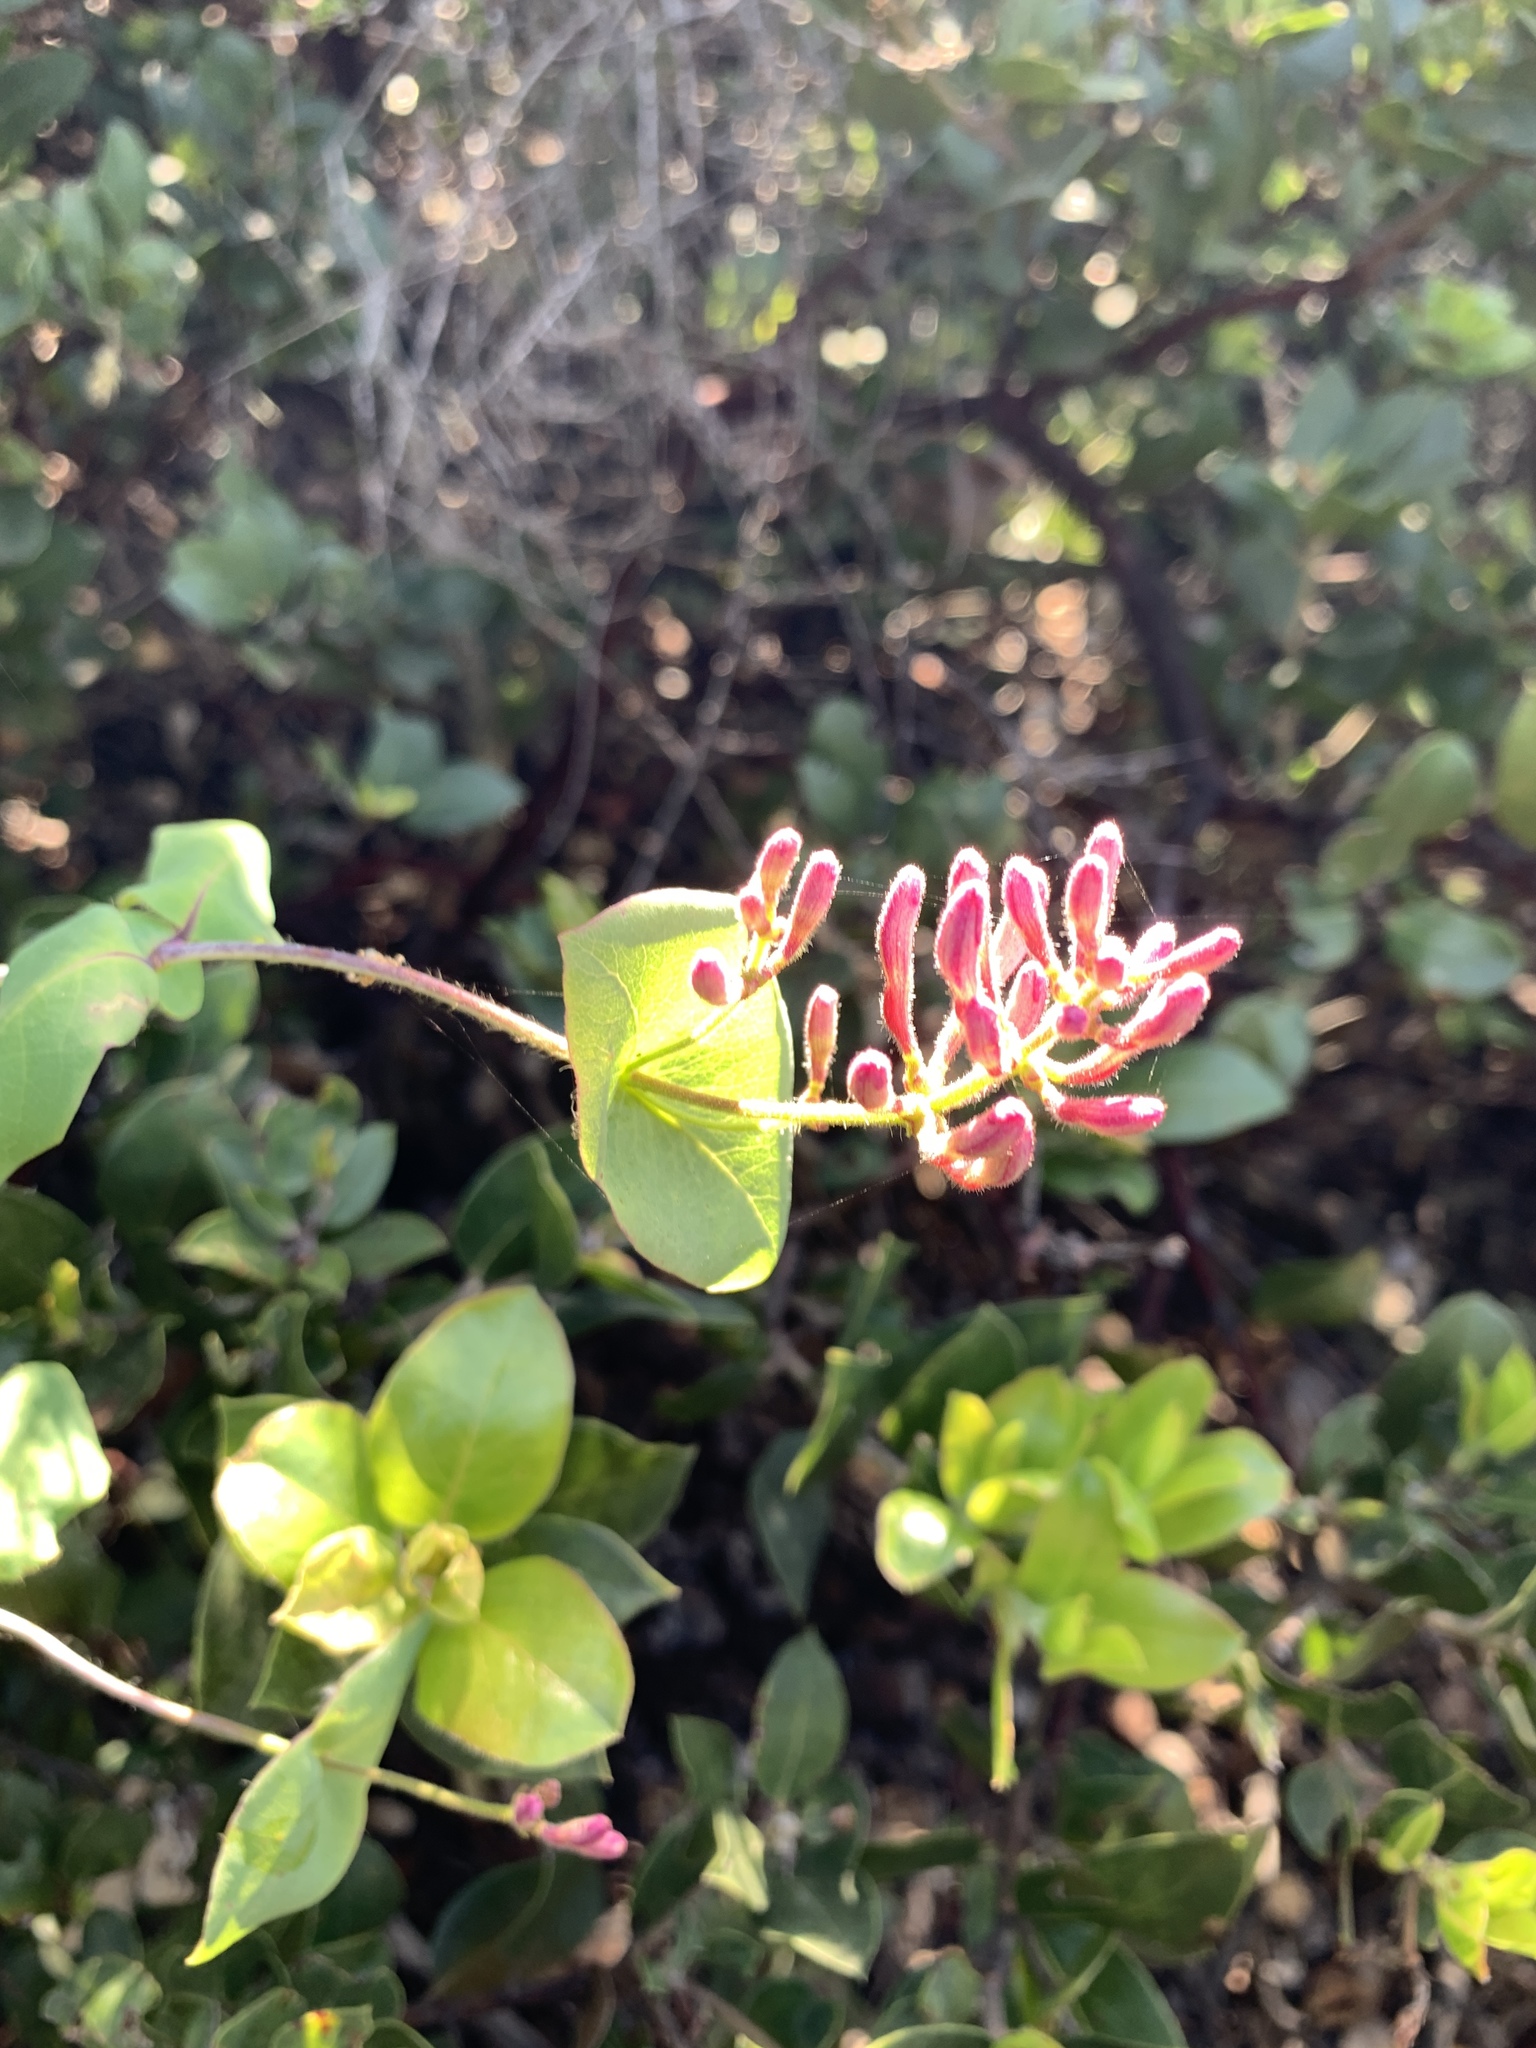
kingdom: Plantae
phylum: Tracheophyta
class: Magnoliopsida
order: Dipsacales
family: Caprifoliaceae
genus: Lonicera
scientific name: Lonicera hispidula
